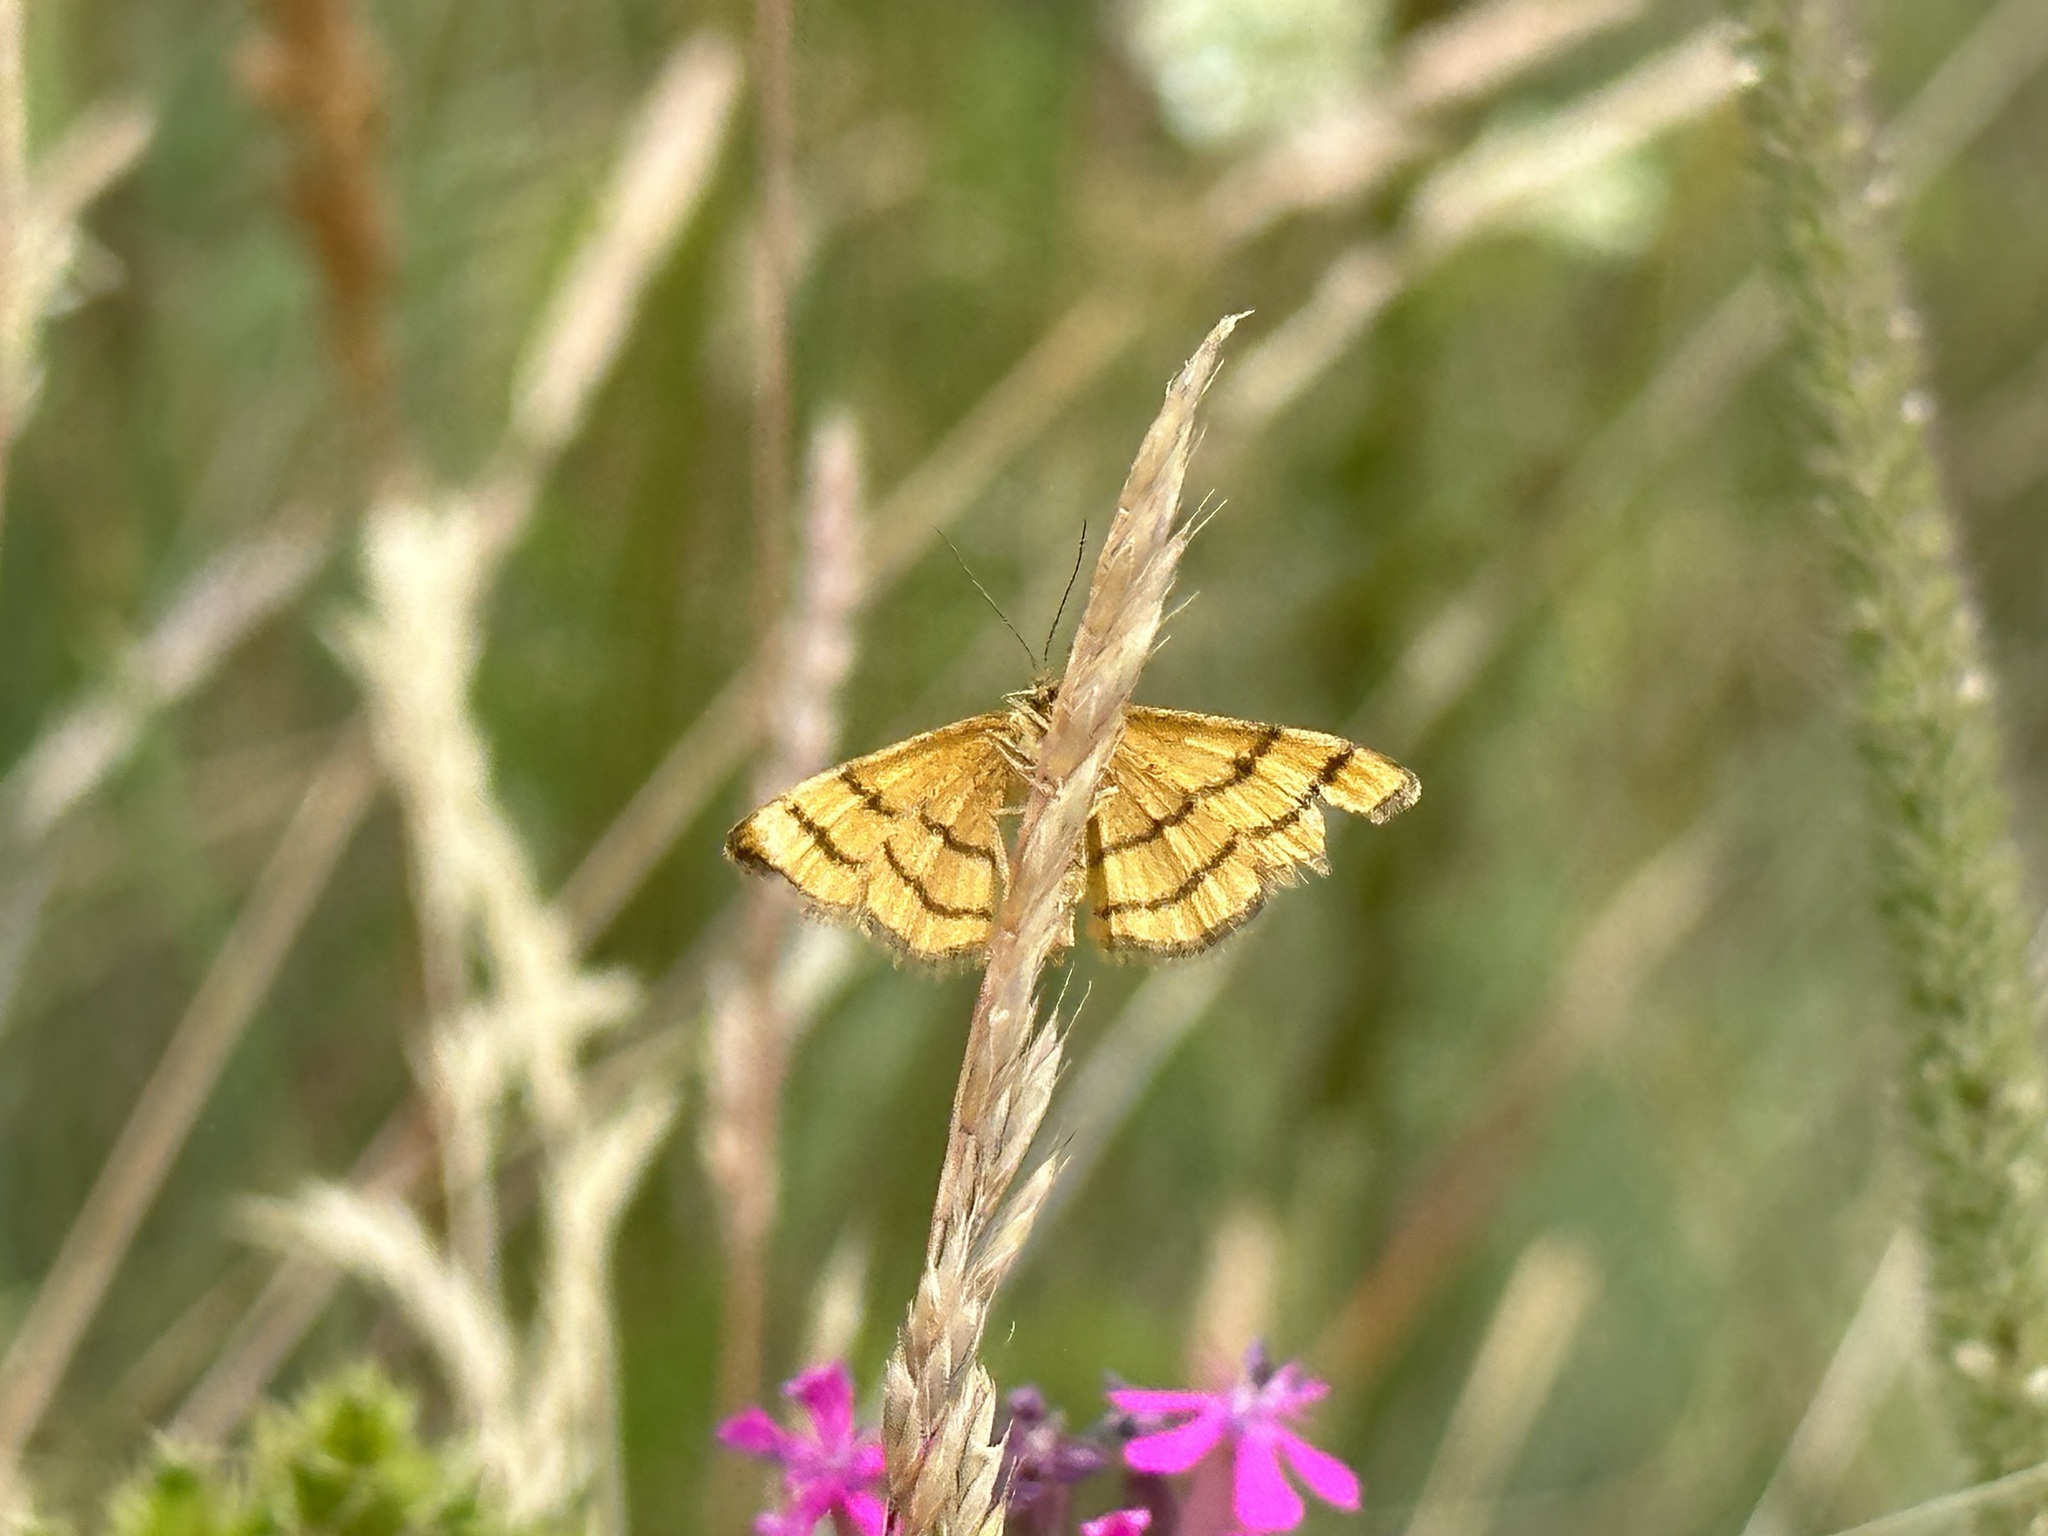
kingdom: Animalia
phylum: Arthropoda
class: Insecta
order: Lepidoptera
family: Geometridae
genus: Idaea
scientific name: Idaea aureolaria
